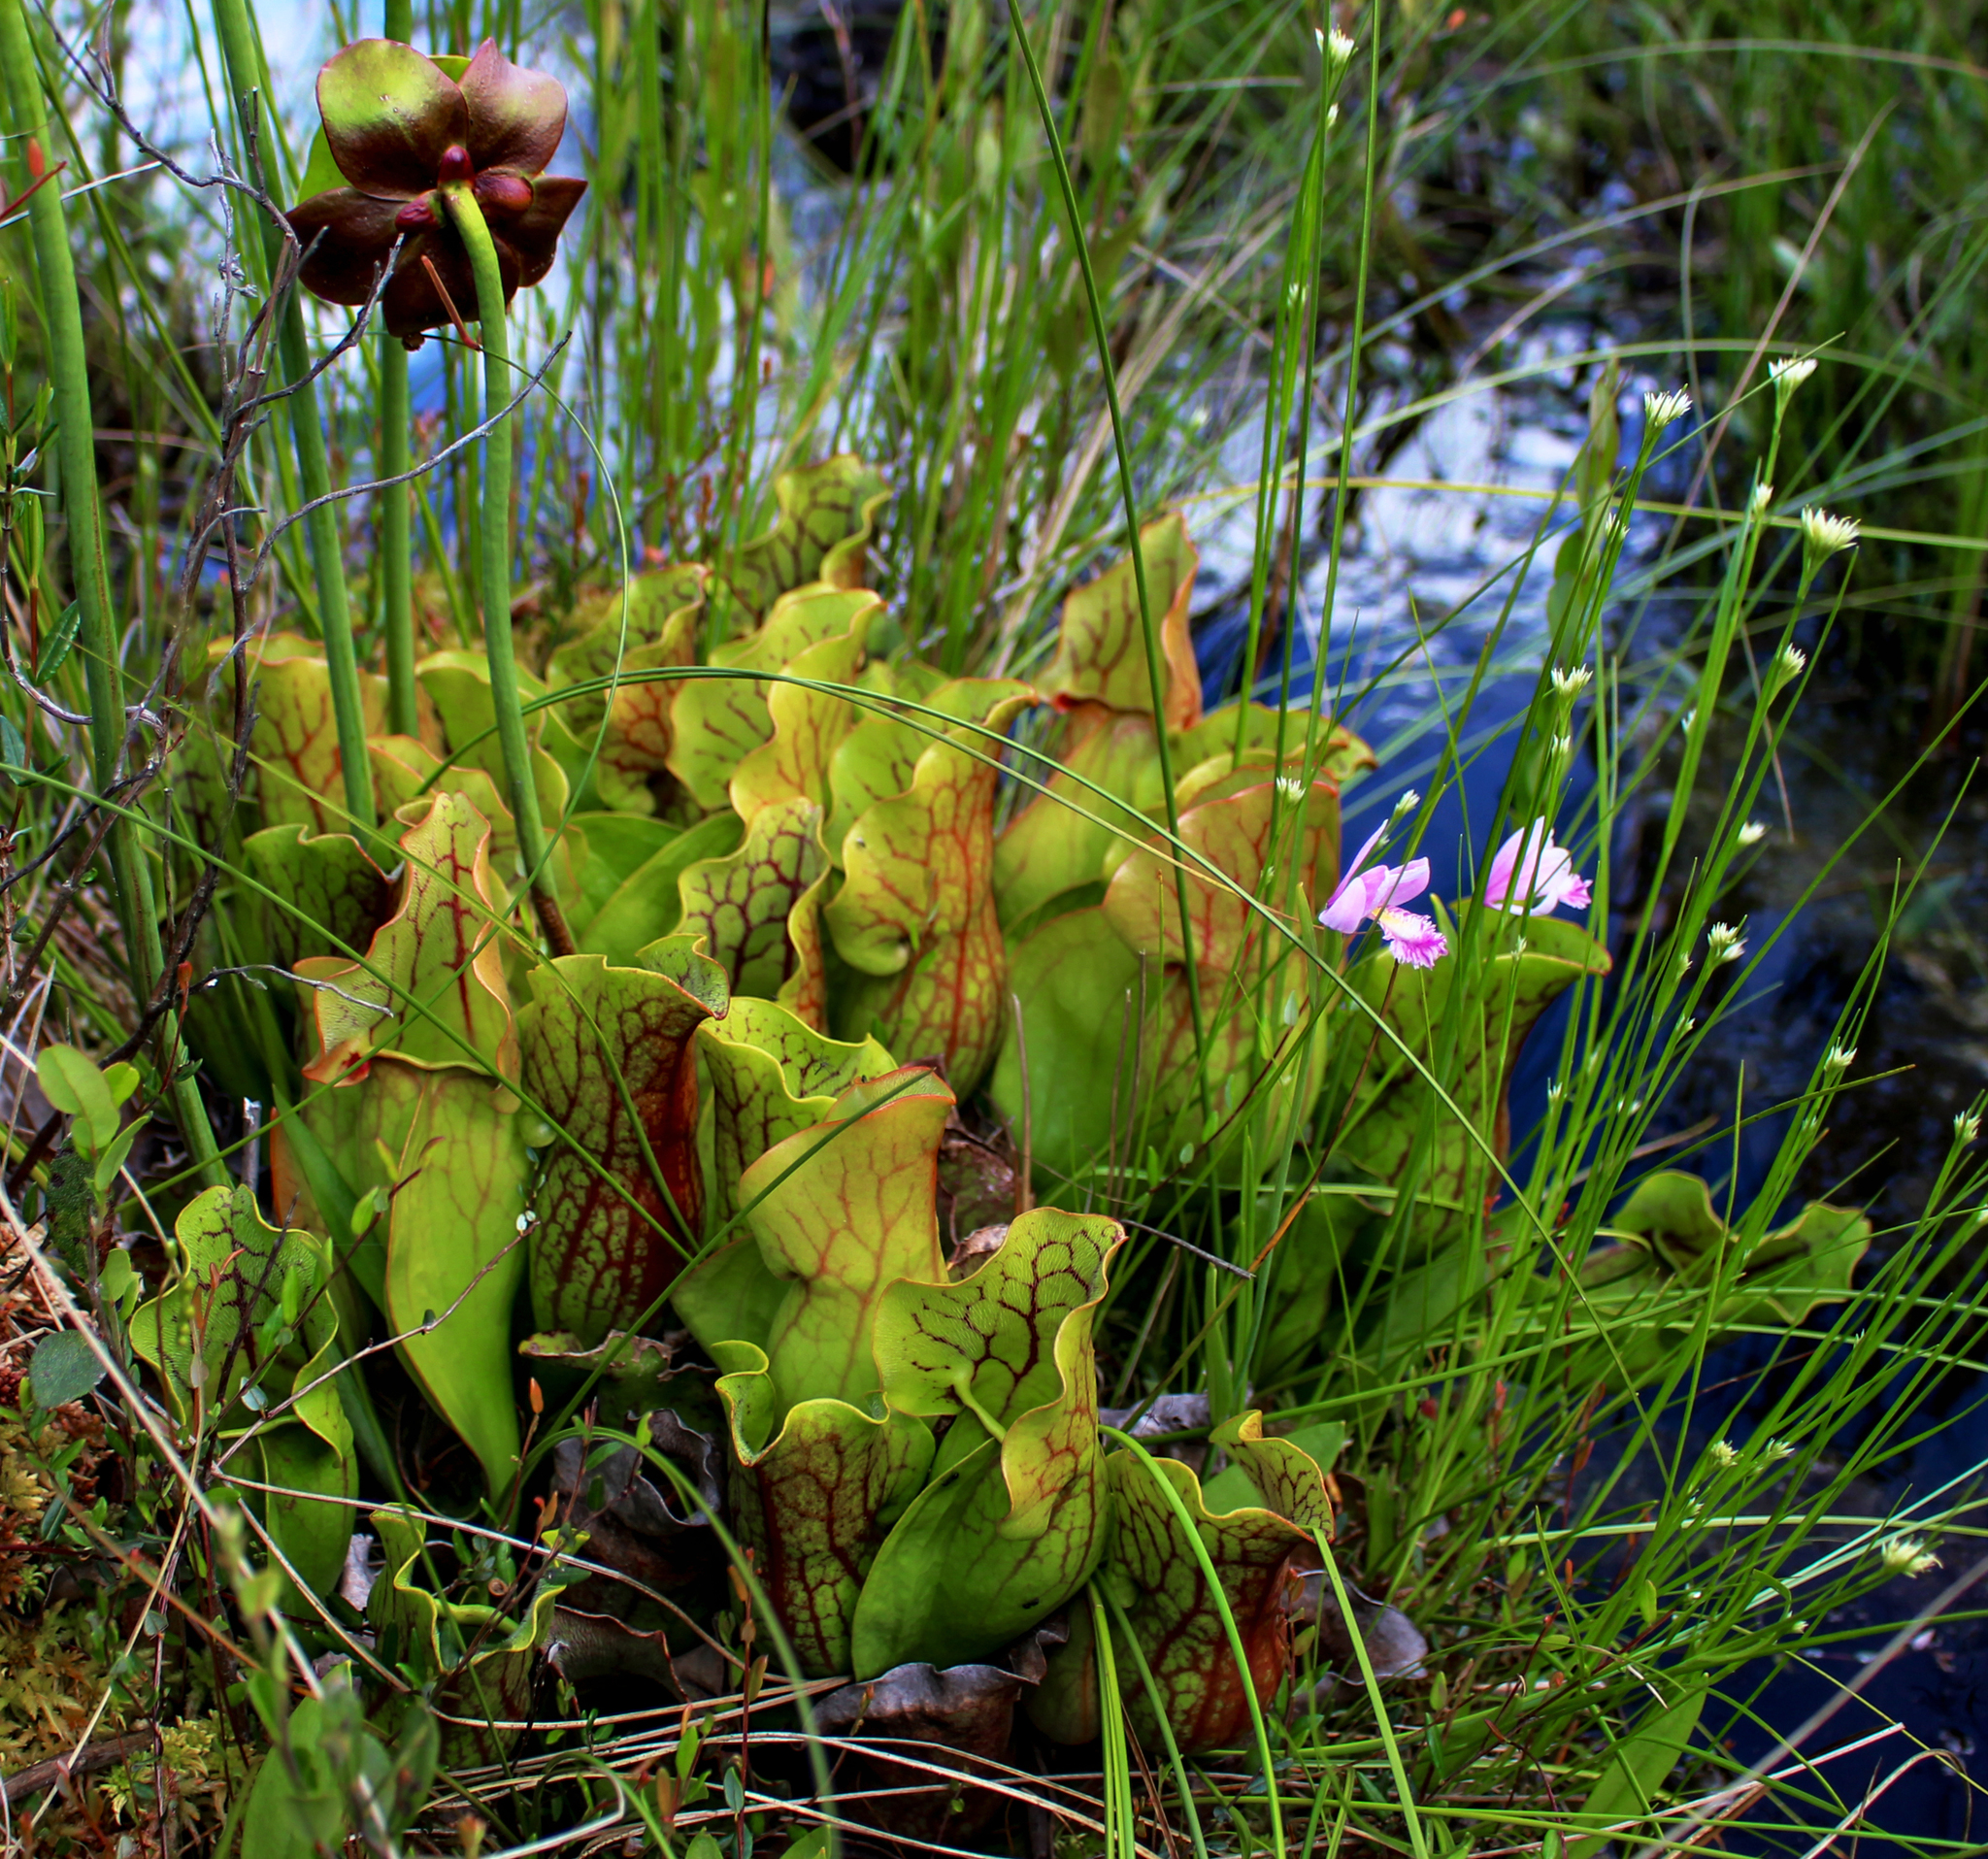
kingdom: Plantae
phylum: Tracheophyta
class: Magnoliopsida
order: Ericales
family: Sarraceniaceae
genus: Sarracenia
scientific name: Sarracenia purpurea
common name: Pitcherplant
